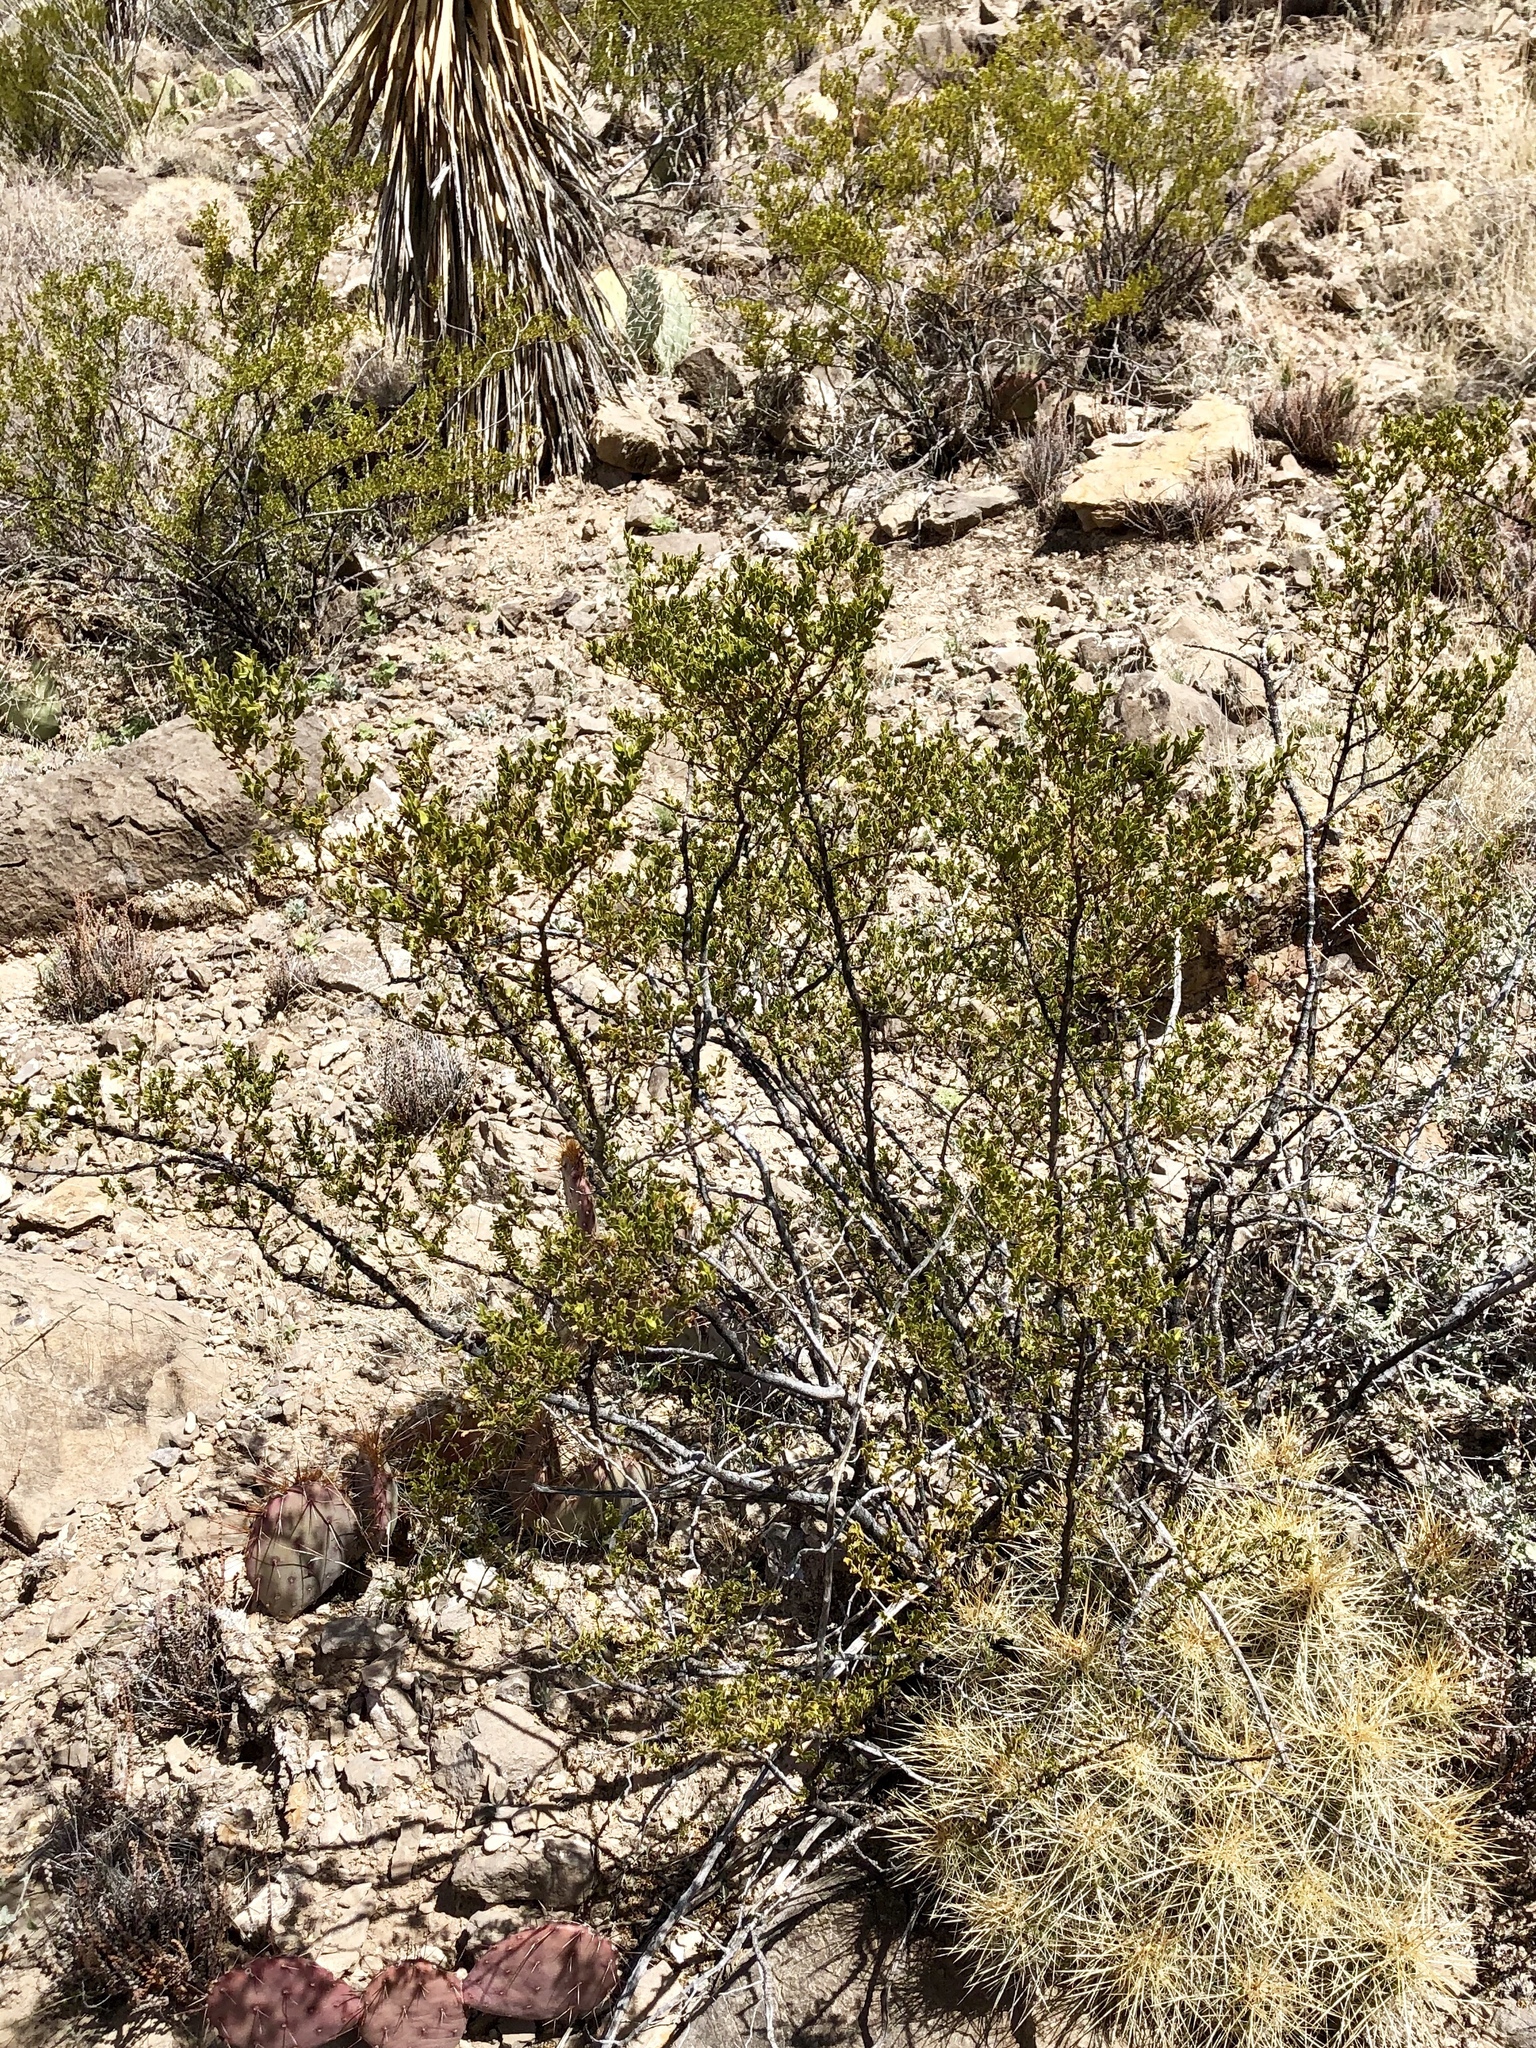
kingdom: Plantae
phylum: Tracheophyta
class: Magnoliopsida
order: Zygophyllales
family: Zygophyllaceae
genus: Larrea
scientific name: Larrea tridentata
